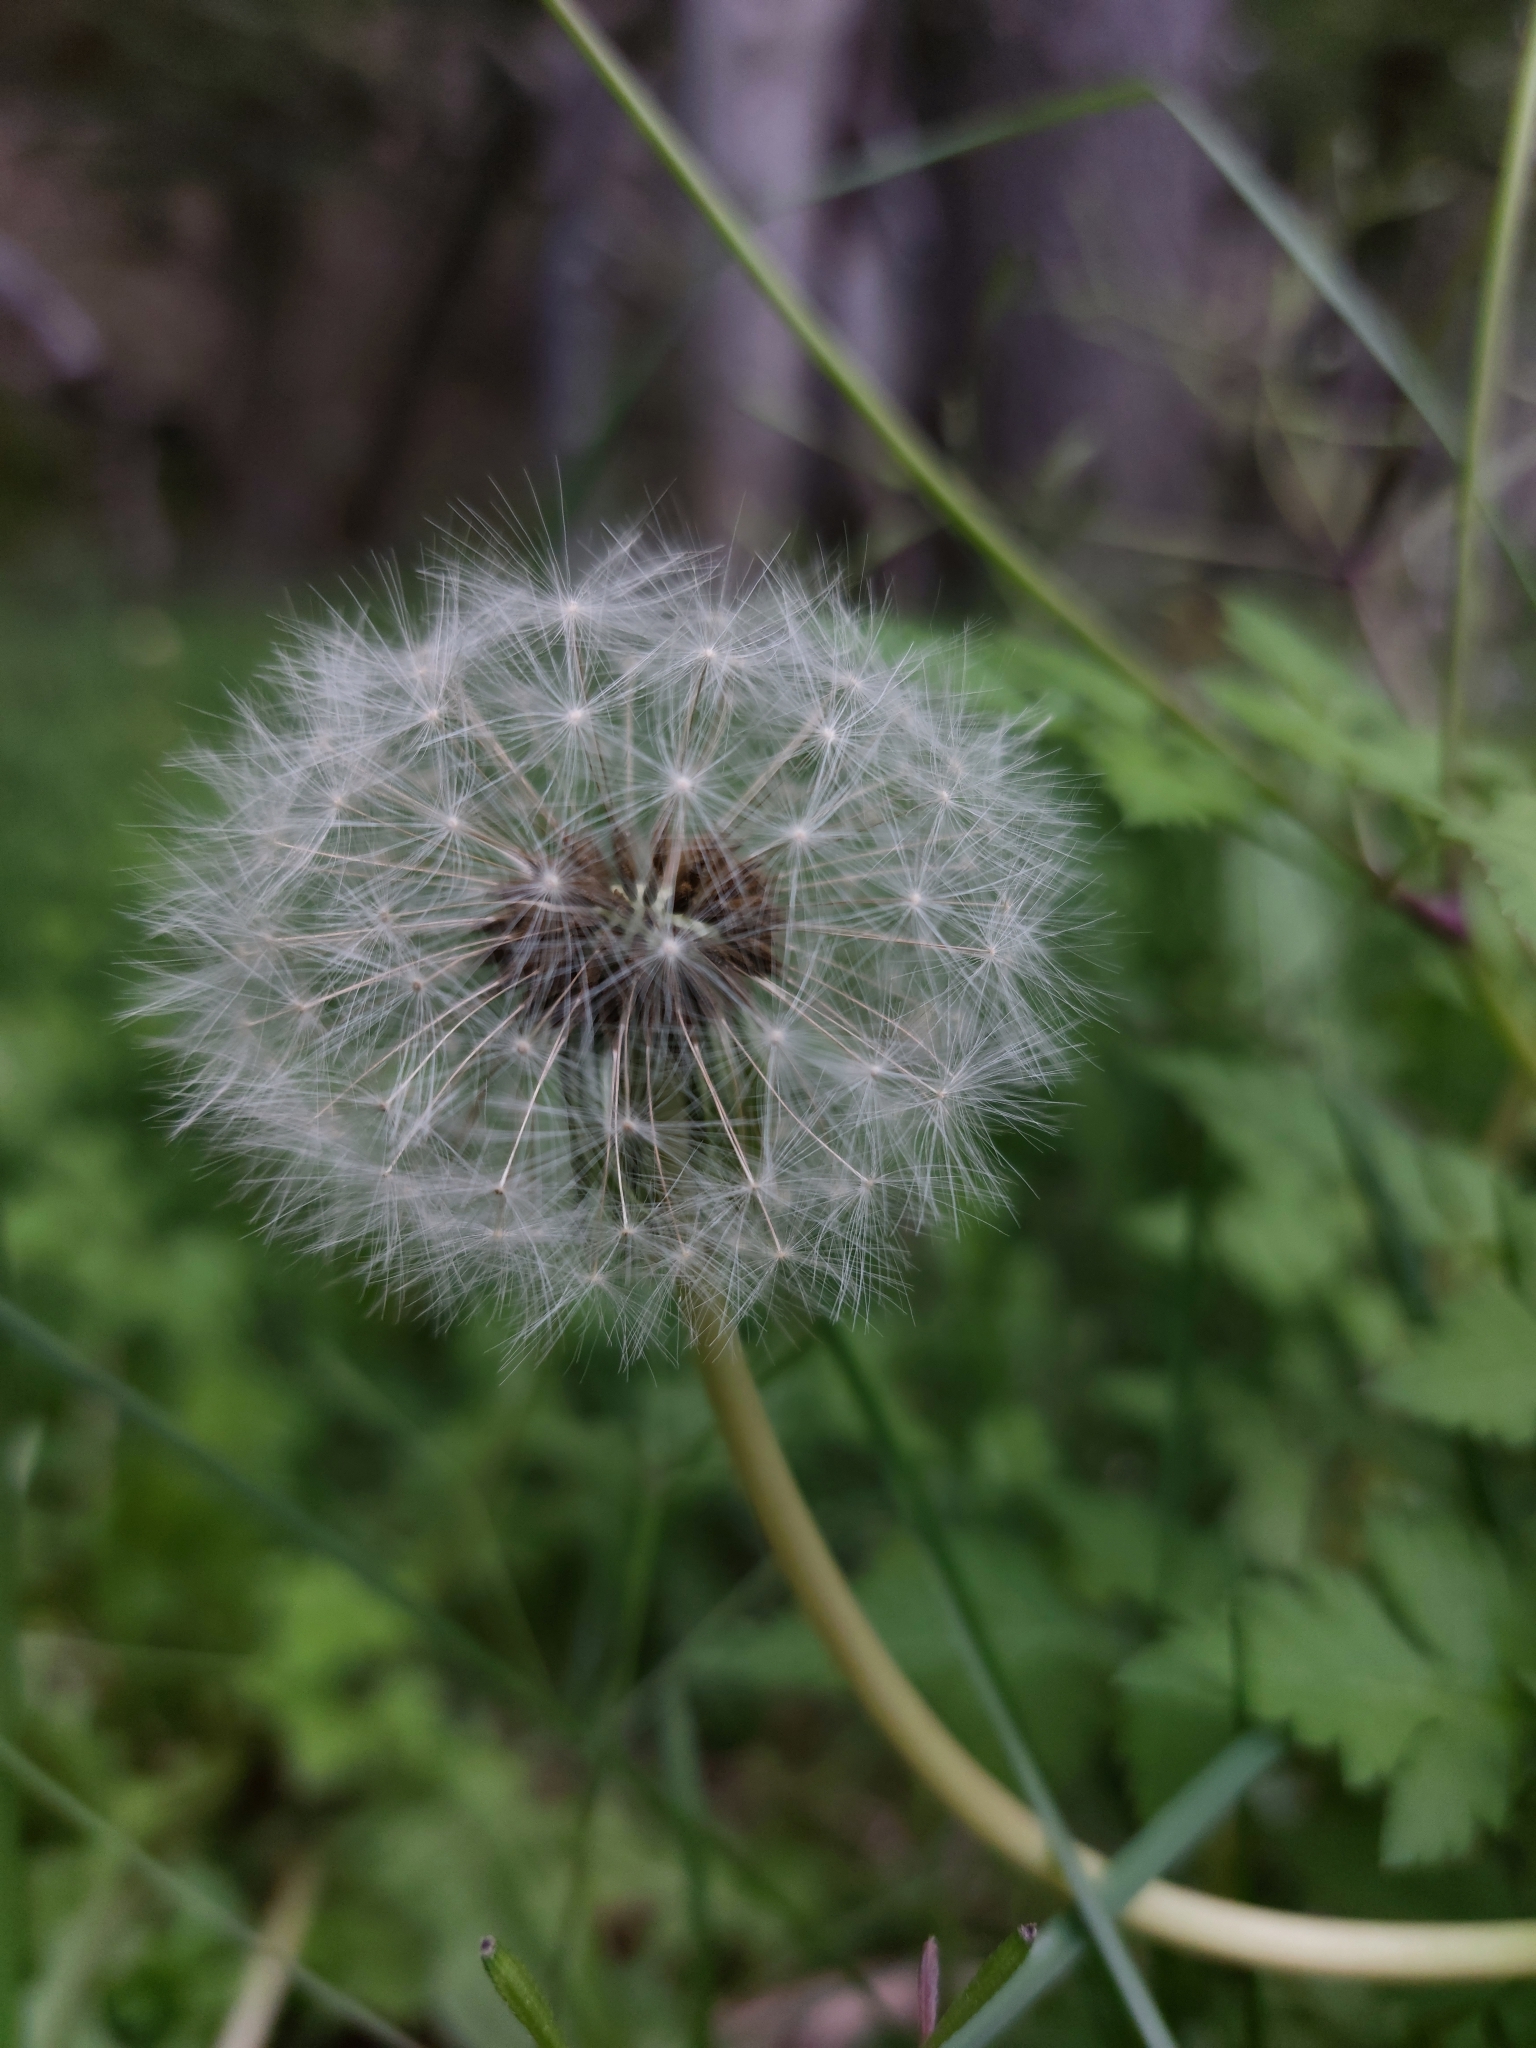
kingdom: Plantae
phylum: Tracheophyta
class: Magnoliopsida
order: Asterales
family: Asteraceae
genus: Taraxacum
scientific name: Taraxacum officinale
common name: Common dandelion
